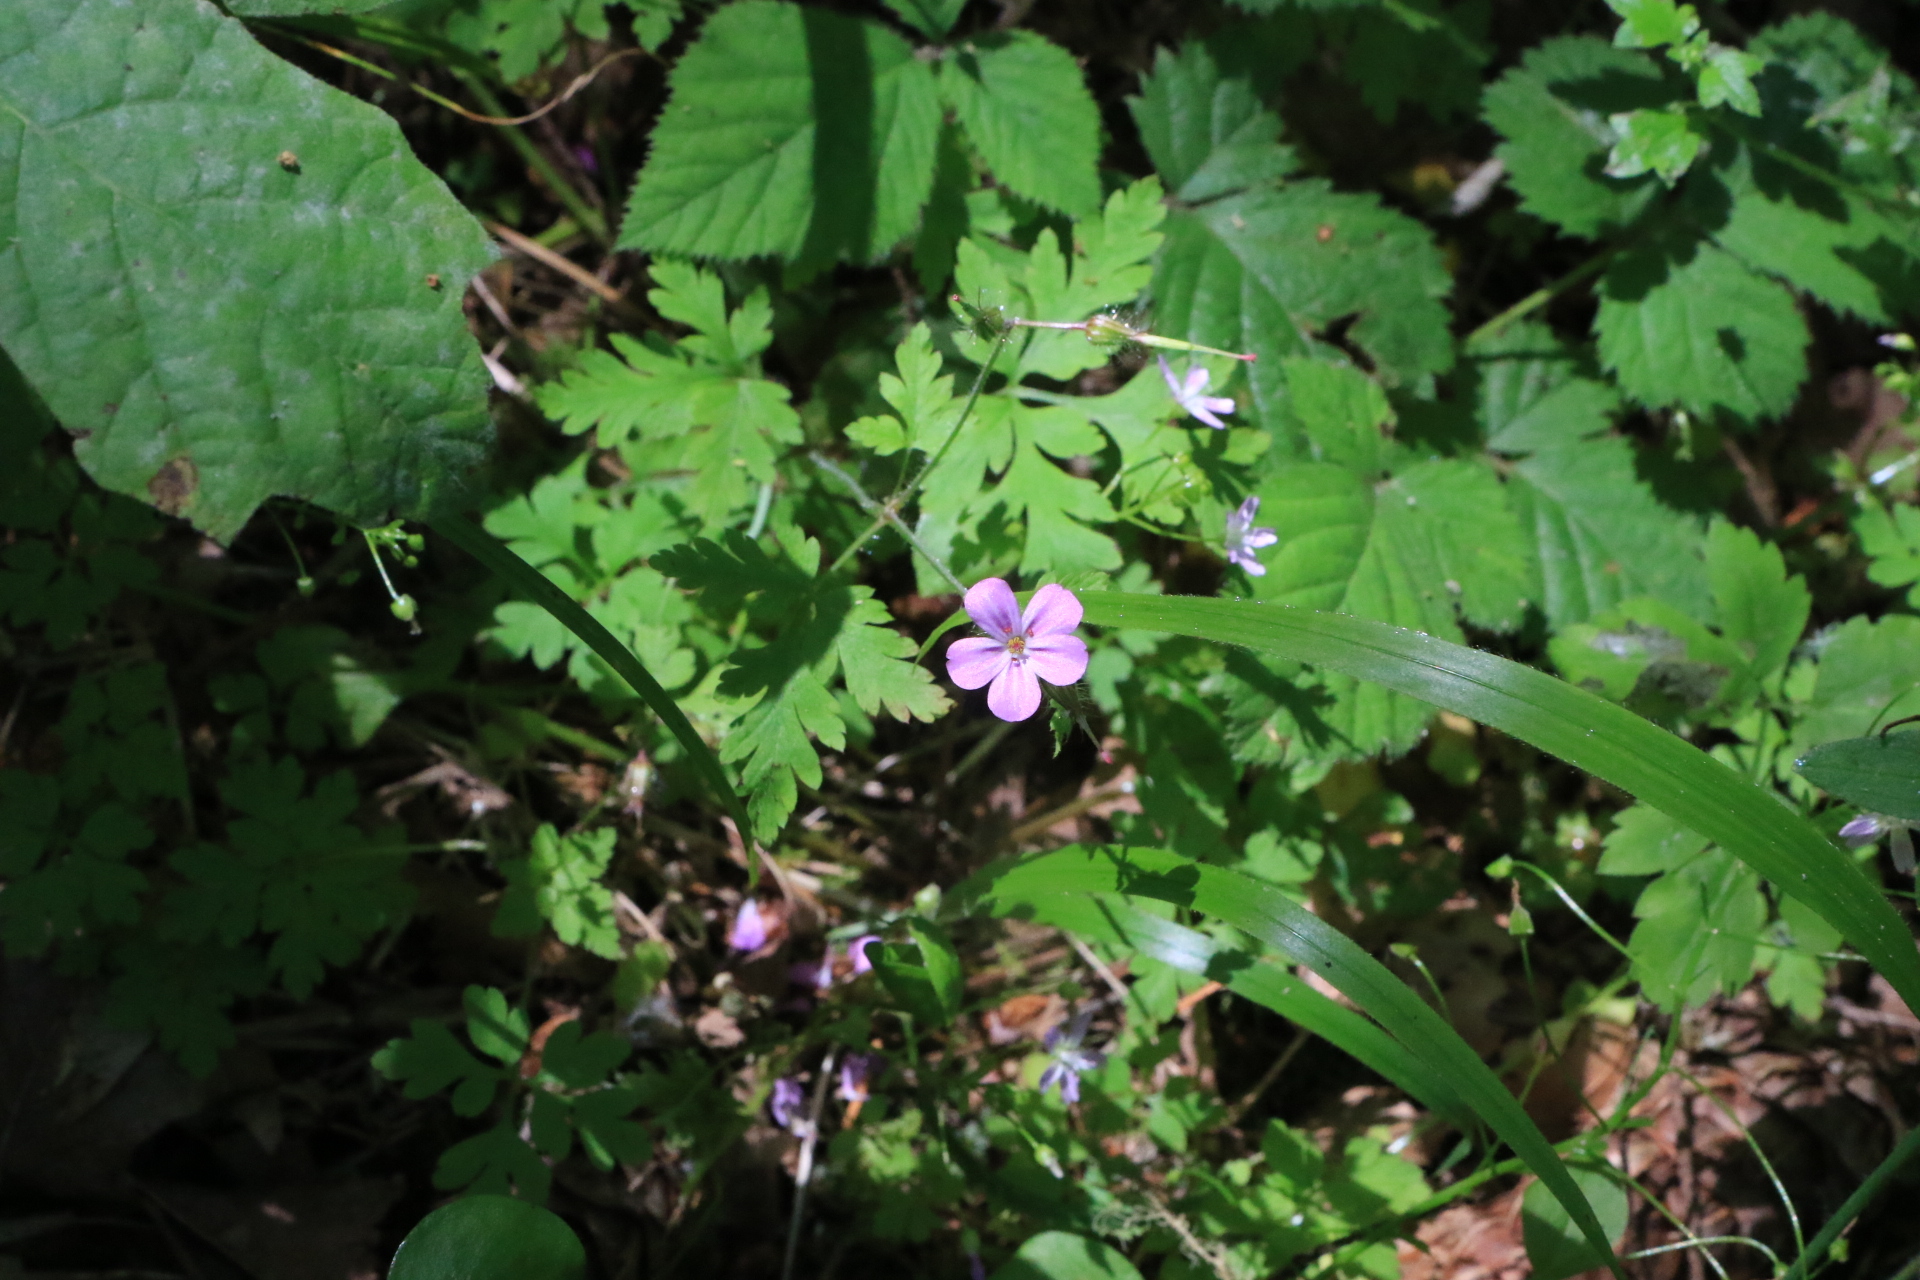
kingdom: Plantae
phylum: Tracheophyta
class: Magnoliopsida
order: Geraniales
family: Geraniaceae
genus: Geranium
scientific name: Geranium robertianum
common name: Herb-robert
